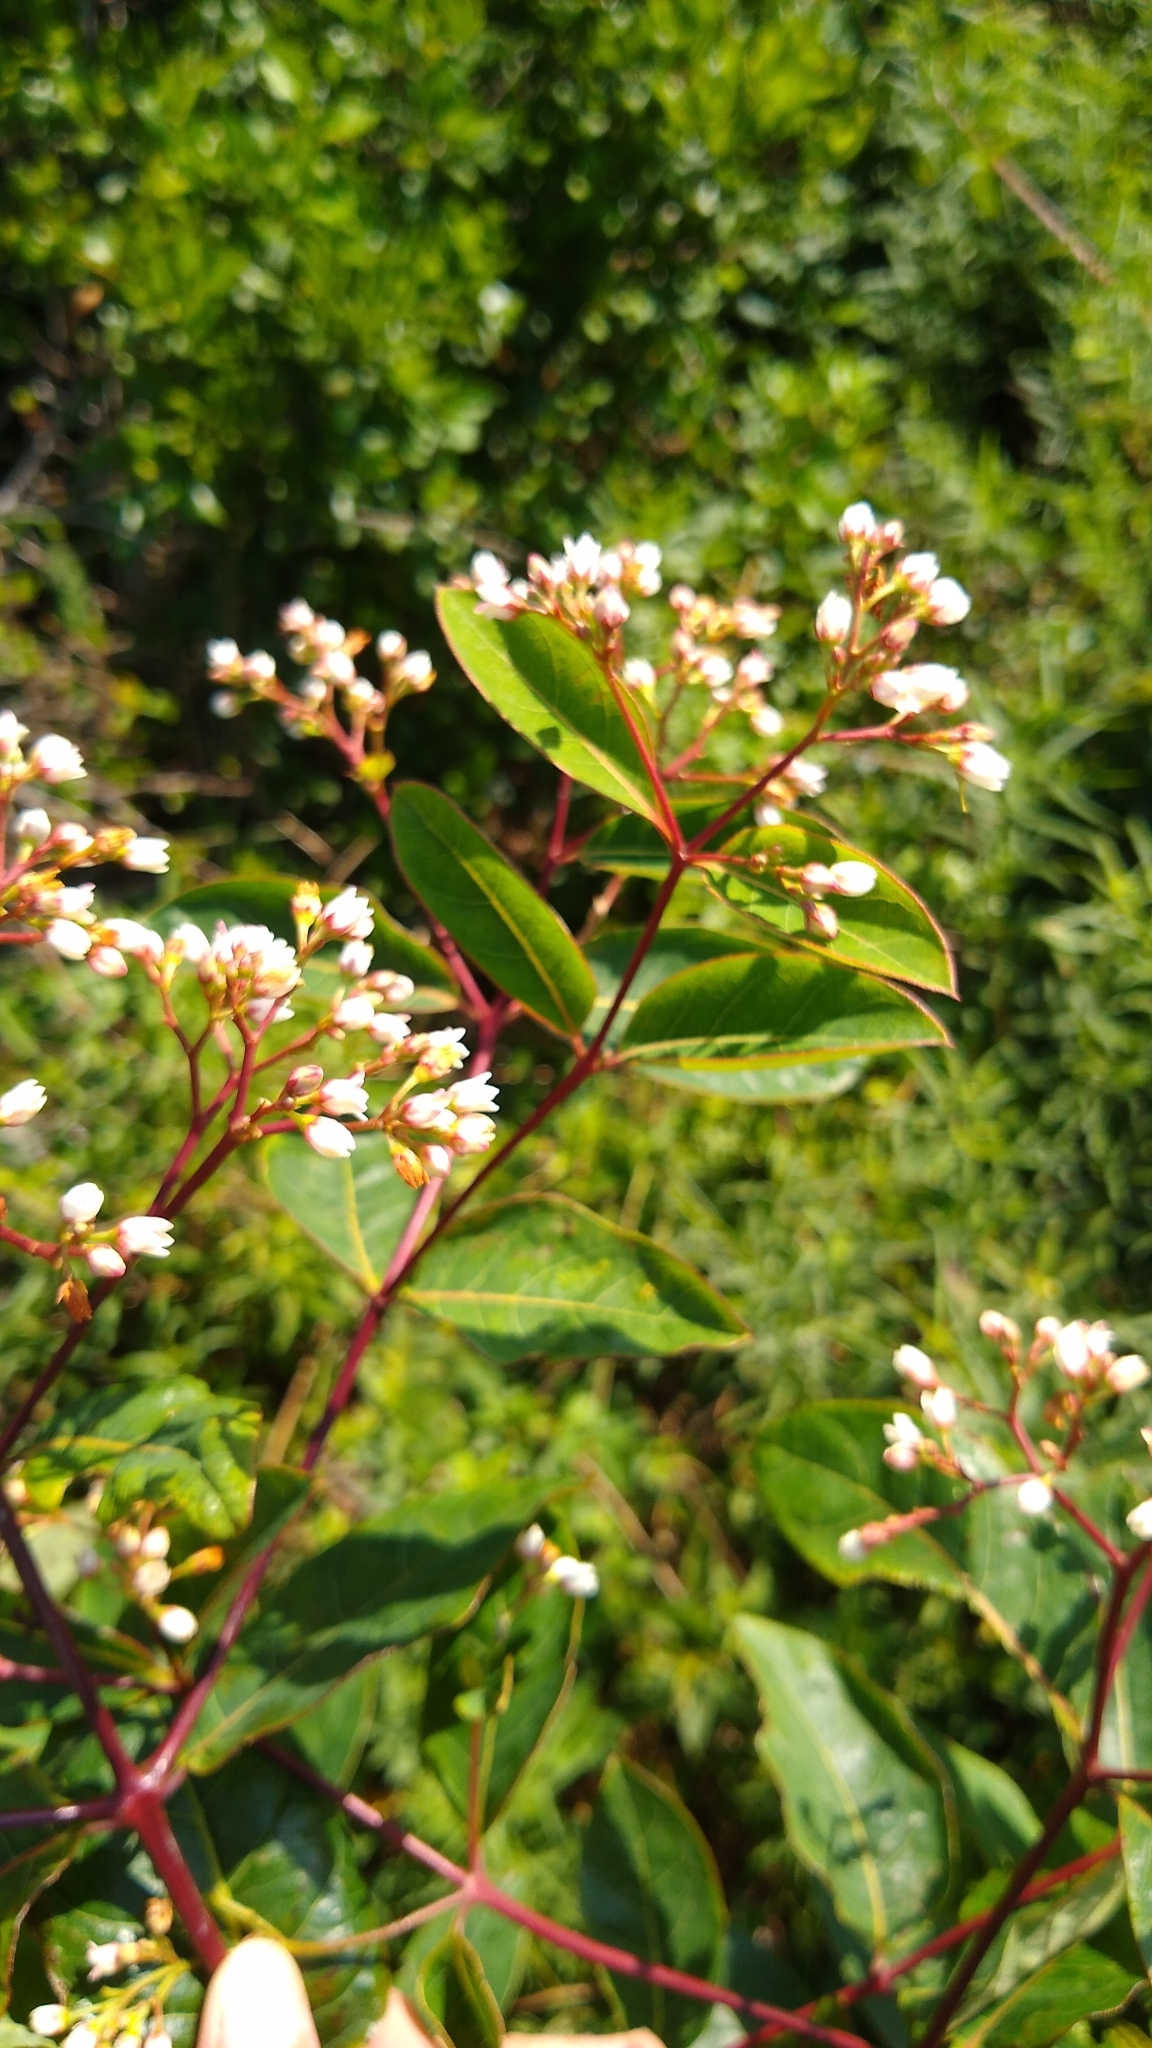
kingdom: Plantae
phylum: Tracheophyta
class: Magnoliopsida
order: Gentianales
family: Apocynaceae
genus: Apocynum
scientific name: Apocynum cannabinum
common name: Hemp dogbane
